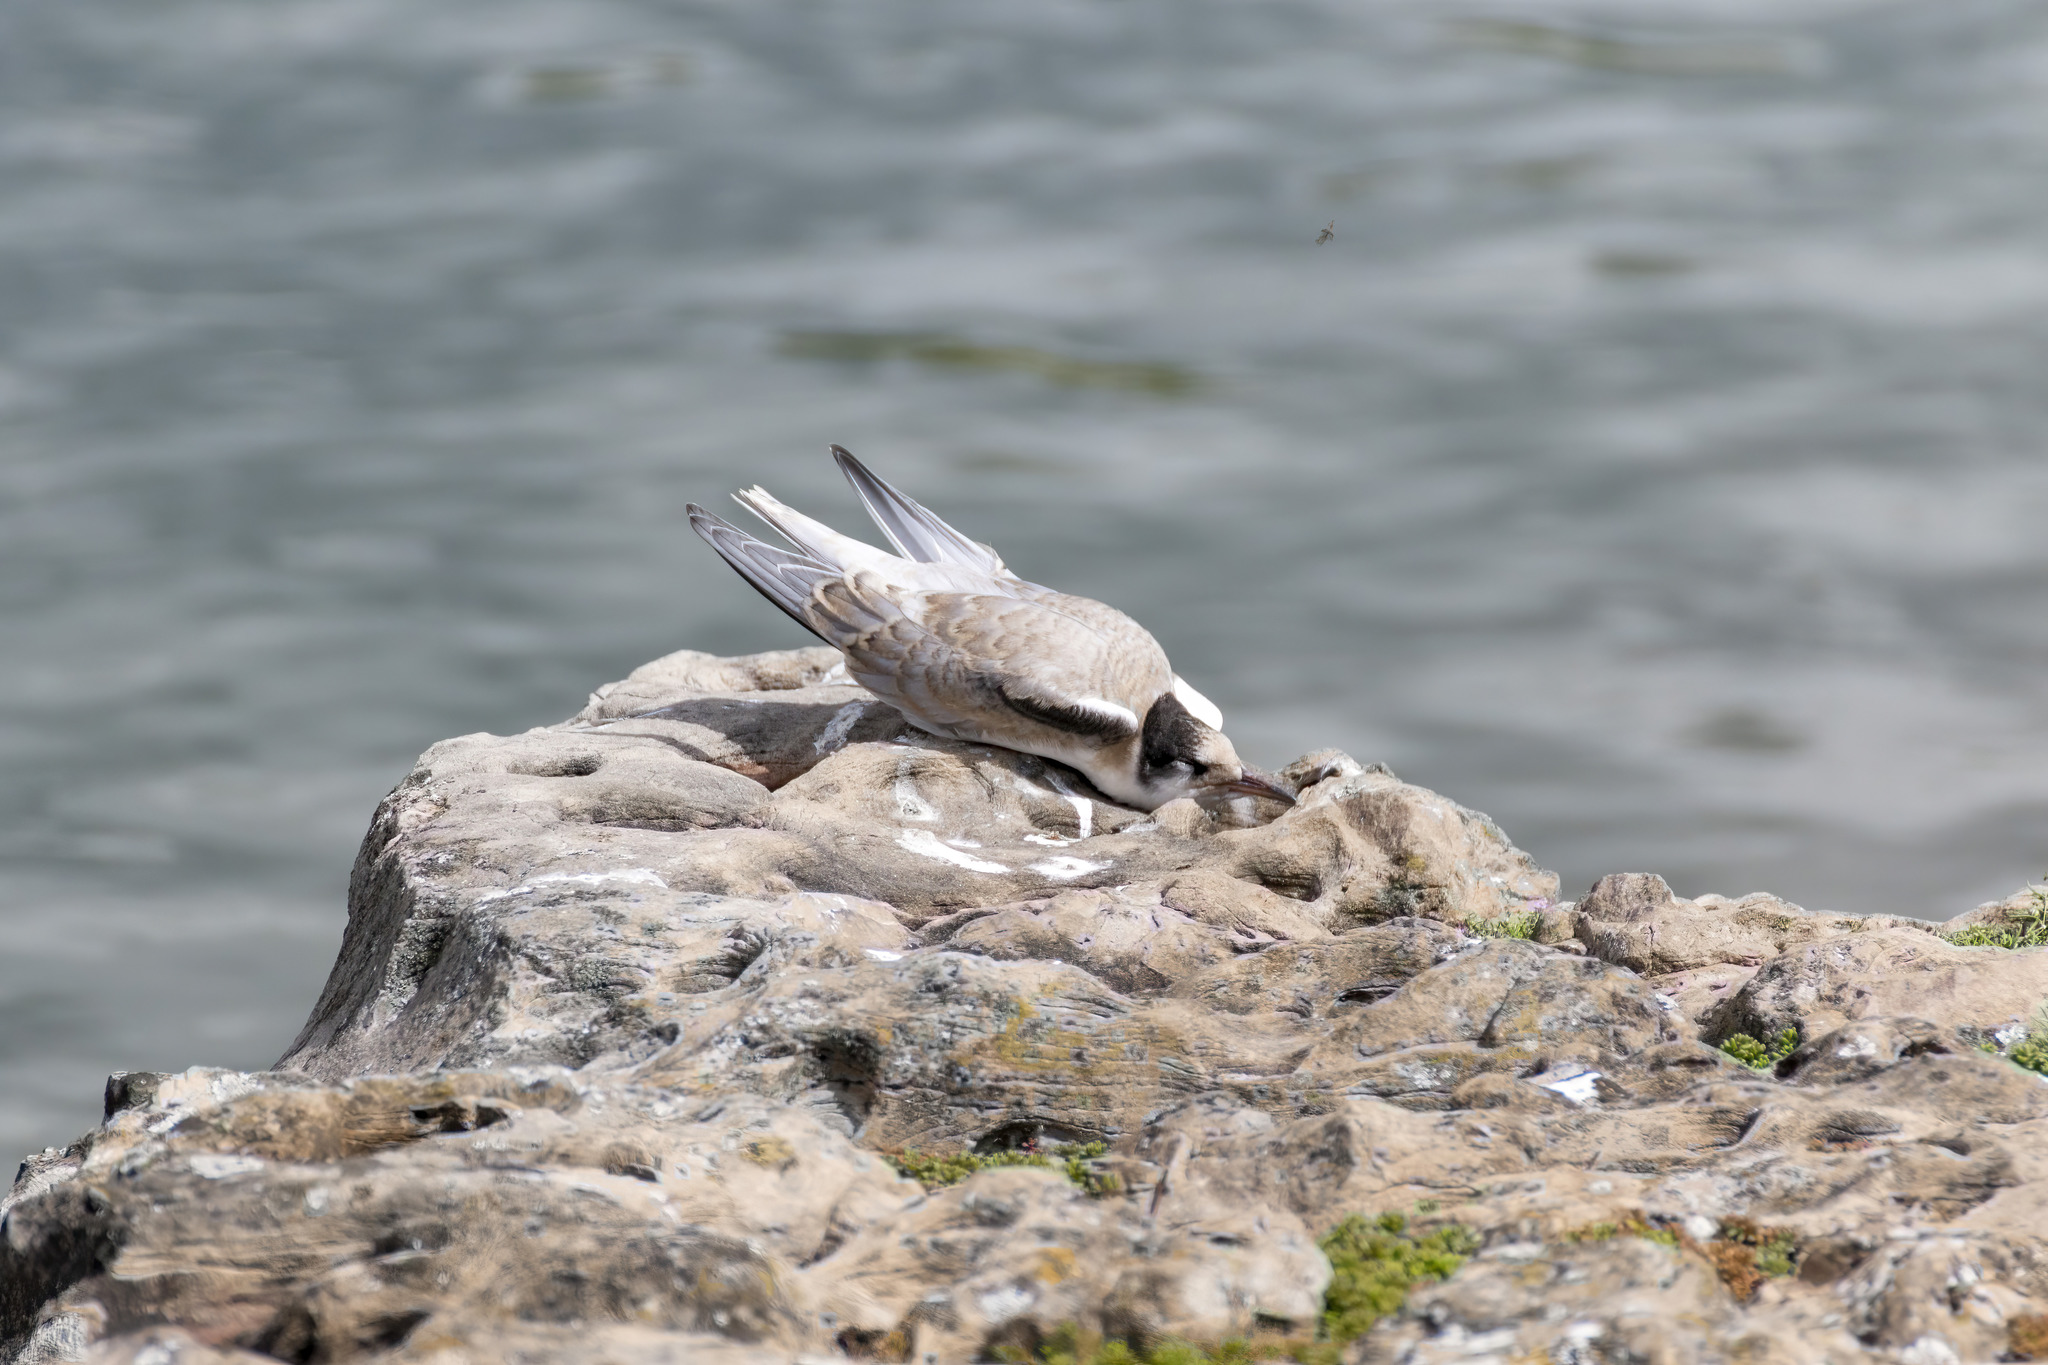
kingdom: Animalia
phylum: Chordata
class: Aves
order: Charadriiformes
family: Laridae
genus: Sterna
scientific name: Sterna hirundo
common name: Common tern
